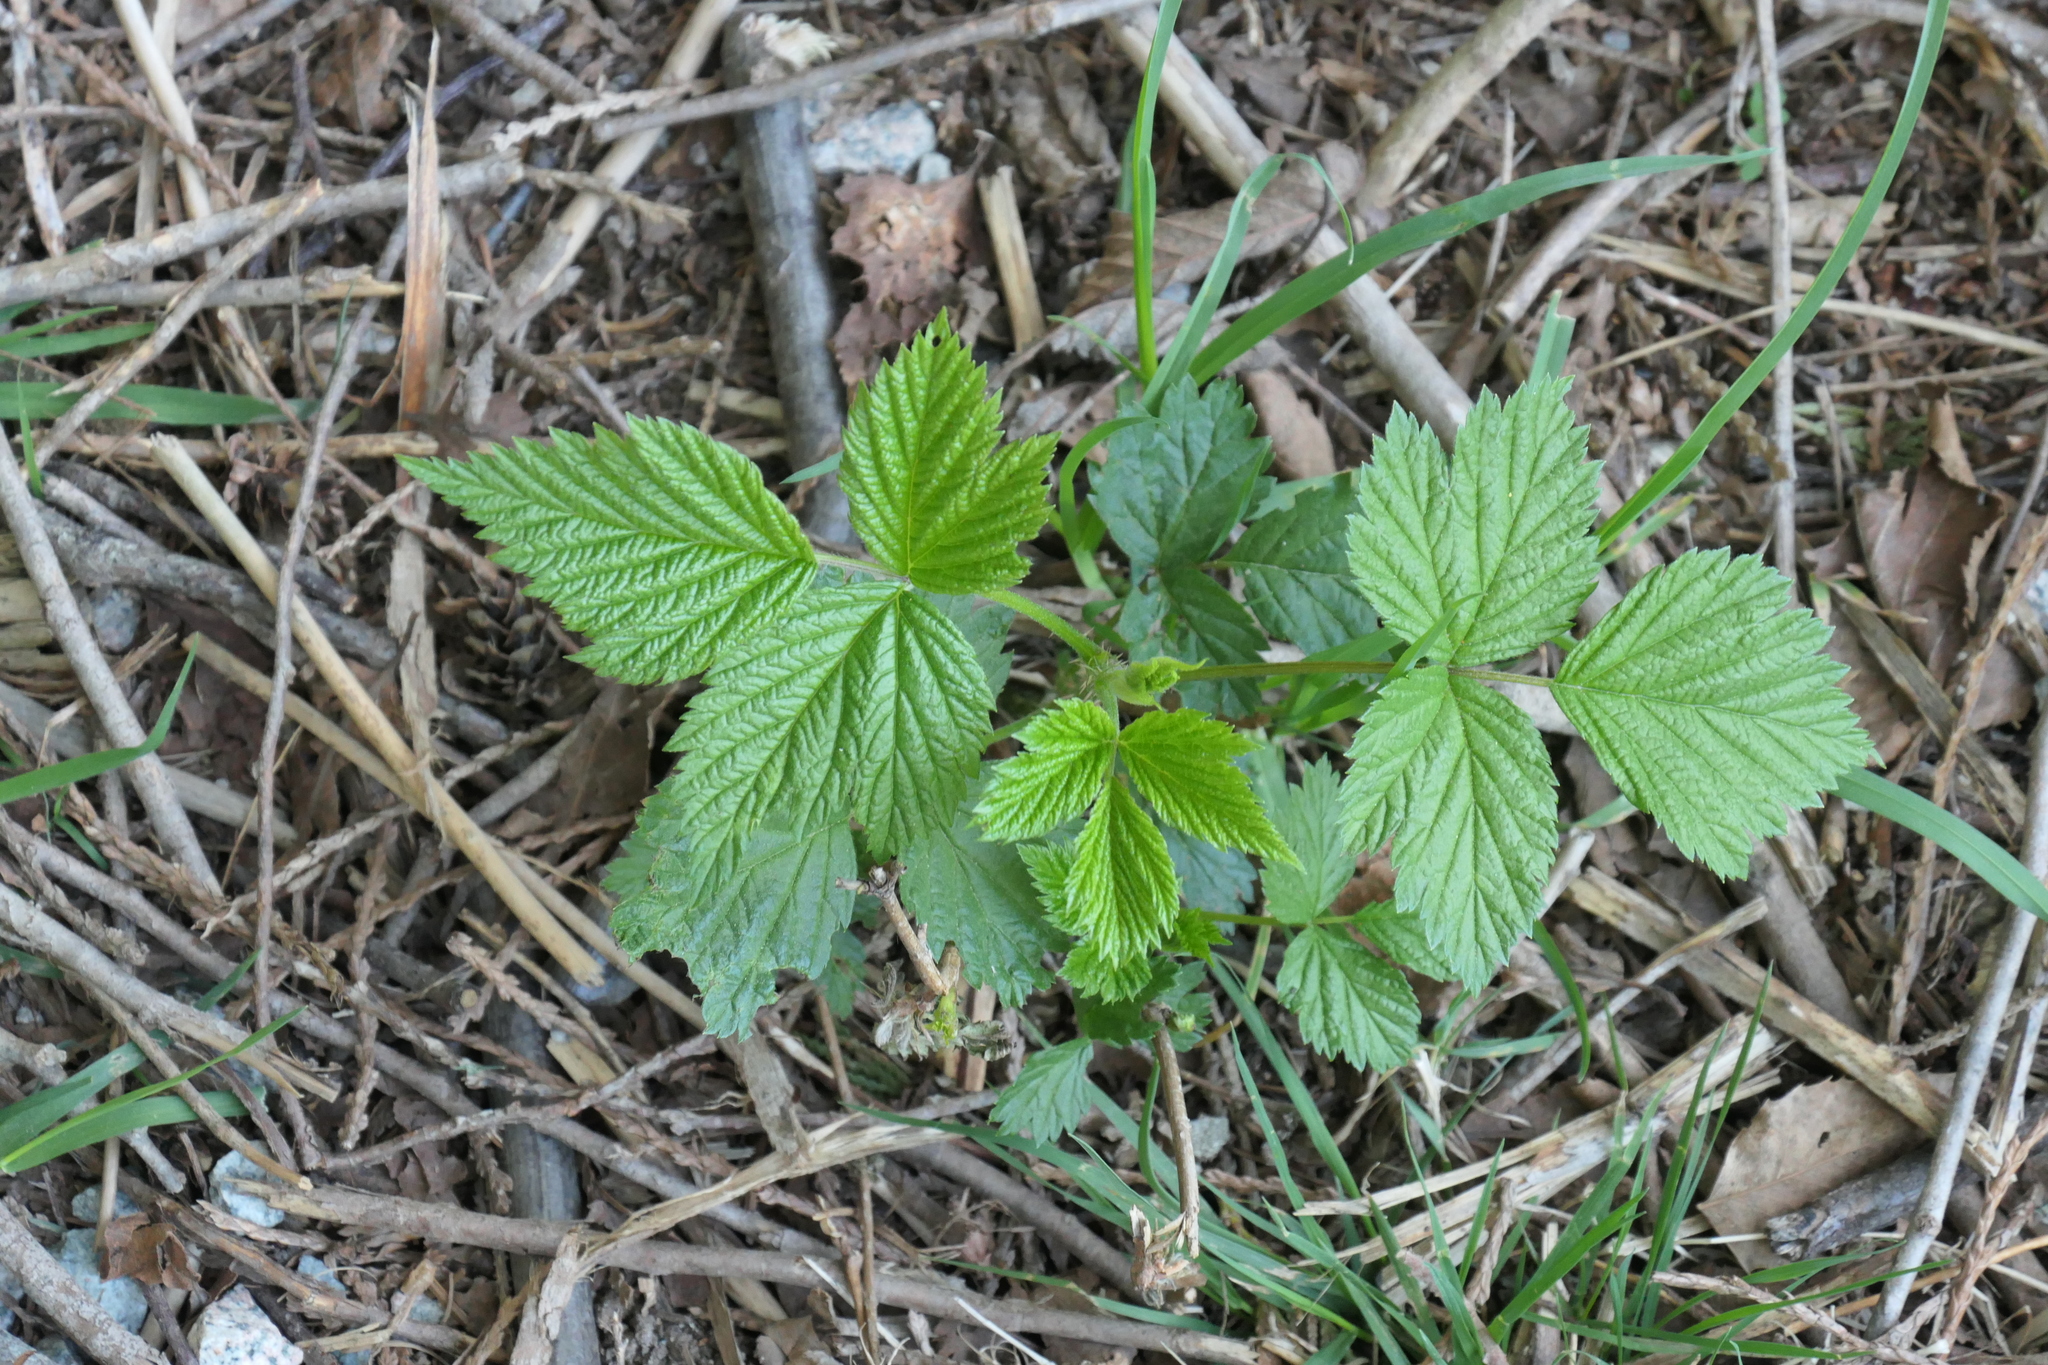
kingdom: Plantae
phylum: Tracheophyta
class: Magnoliopsida
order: Rosales
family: Rosaceae
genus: Rubus
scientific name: Rubus spectabilis
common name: Salmonberry
